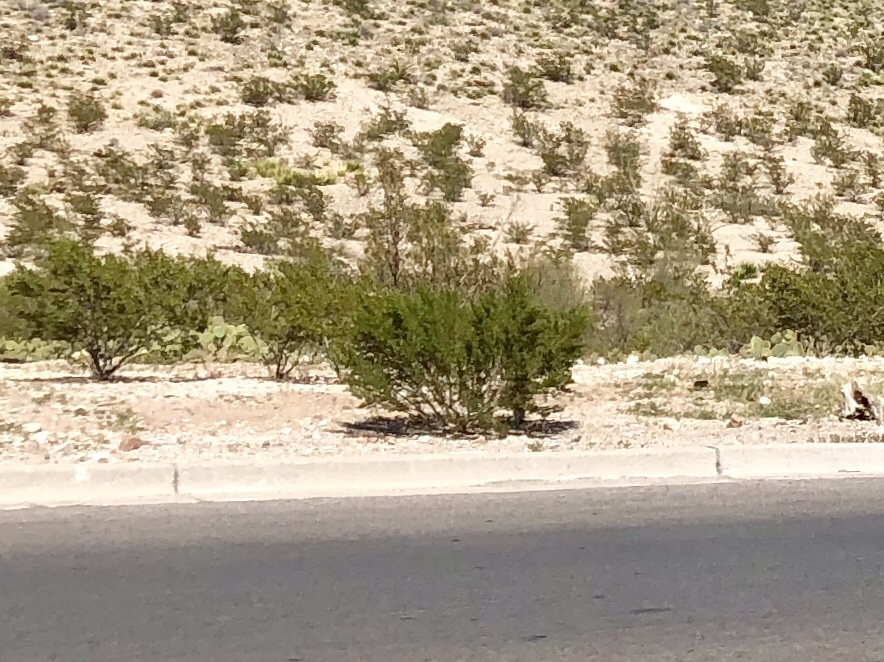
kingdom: Plantae
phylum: Tracheophyta
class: Magnoliopsida
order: Zygophyllales
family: Zygophyllaceae
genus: Larrea
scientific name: Larrea tridentata
